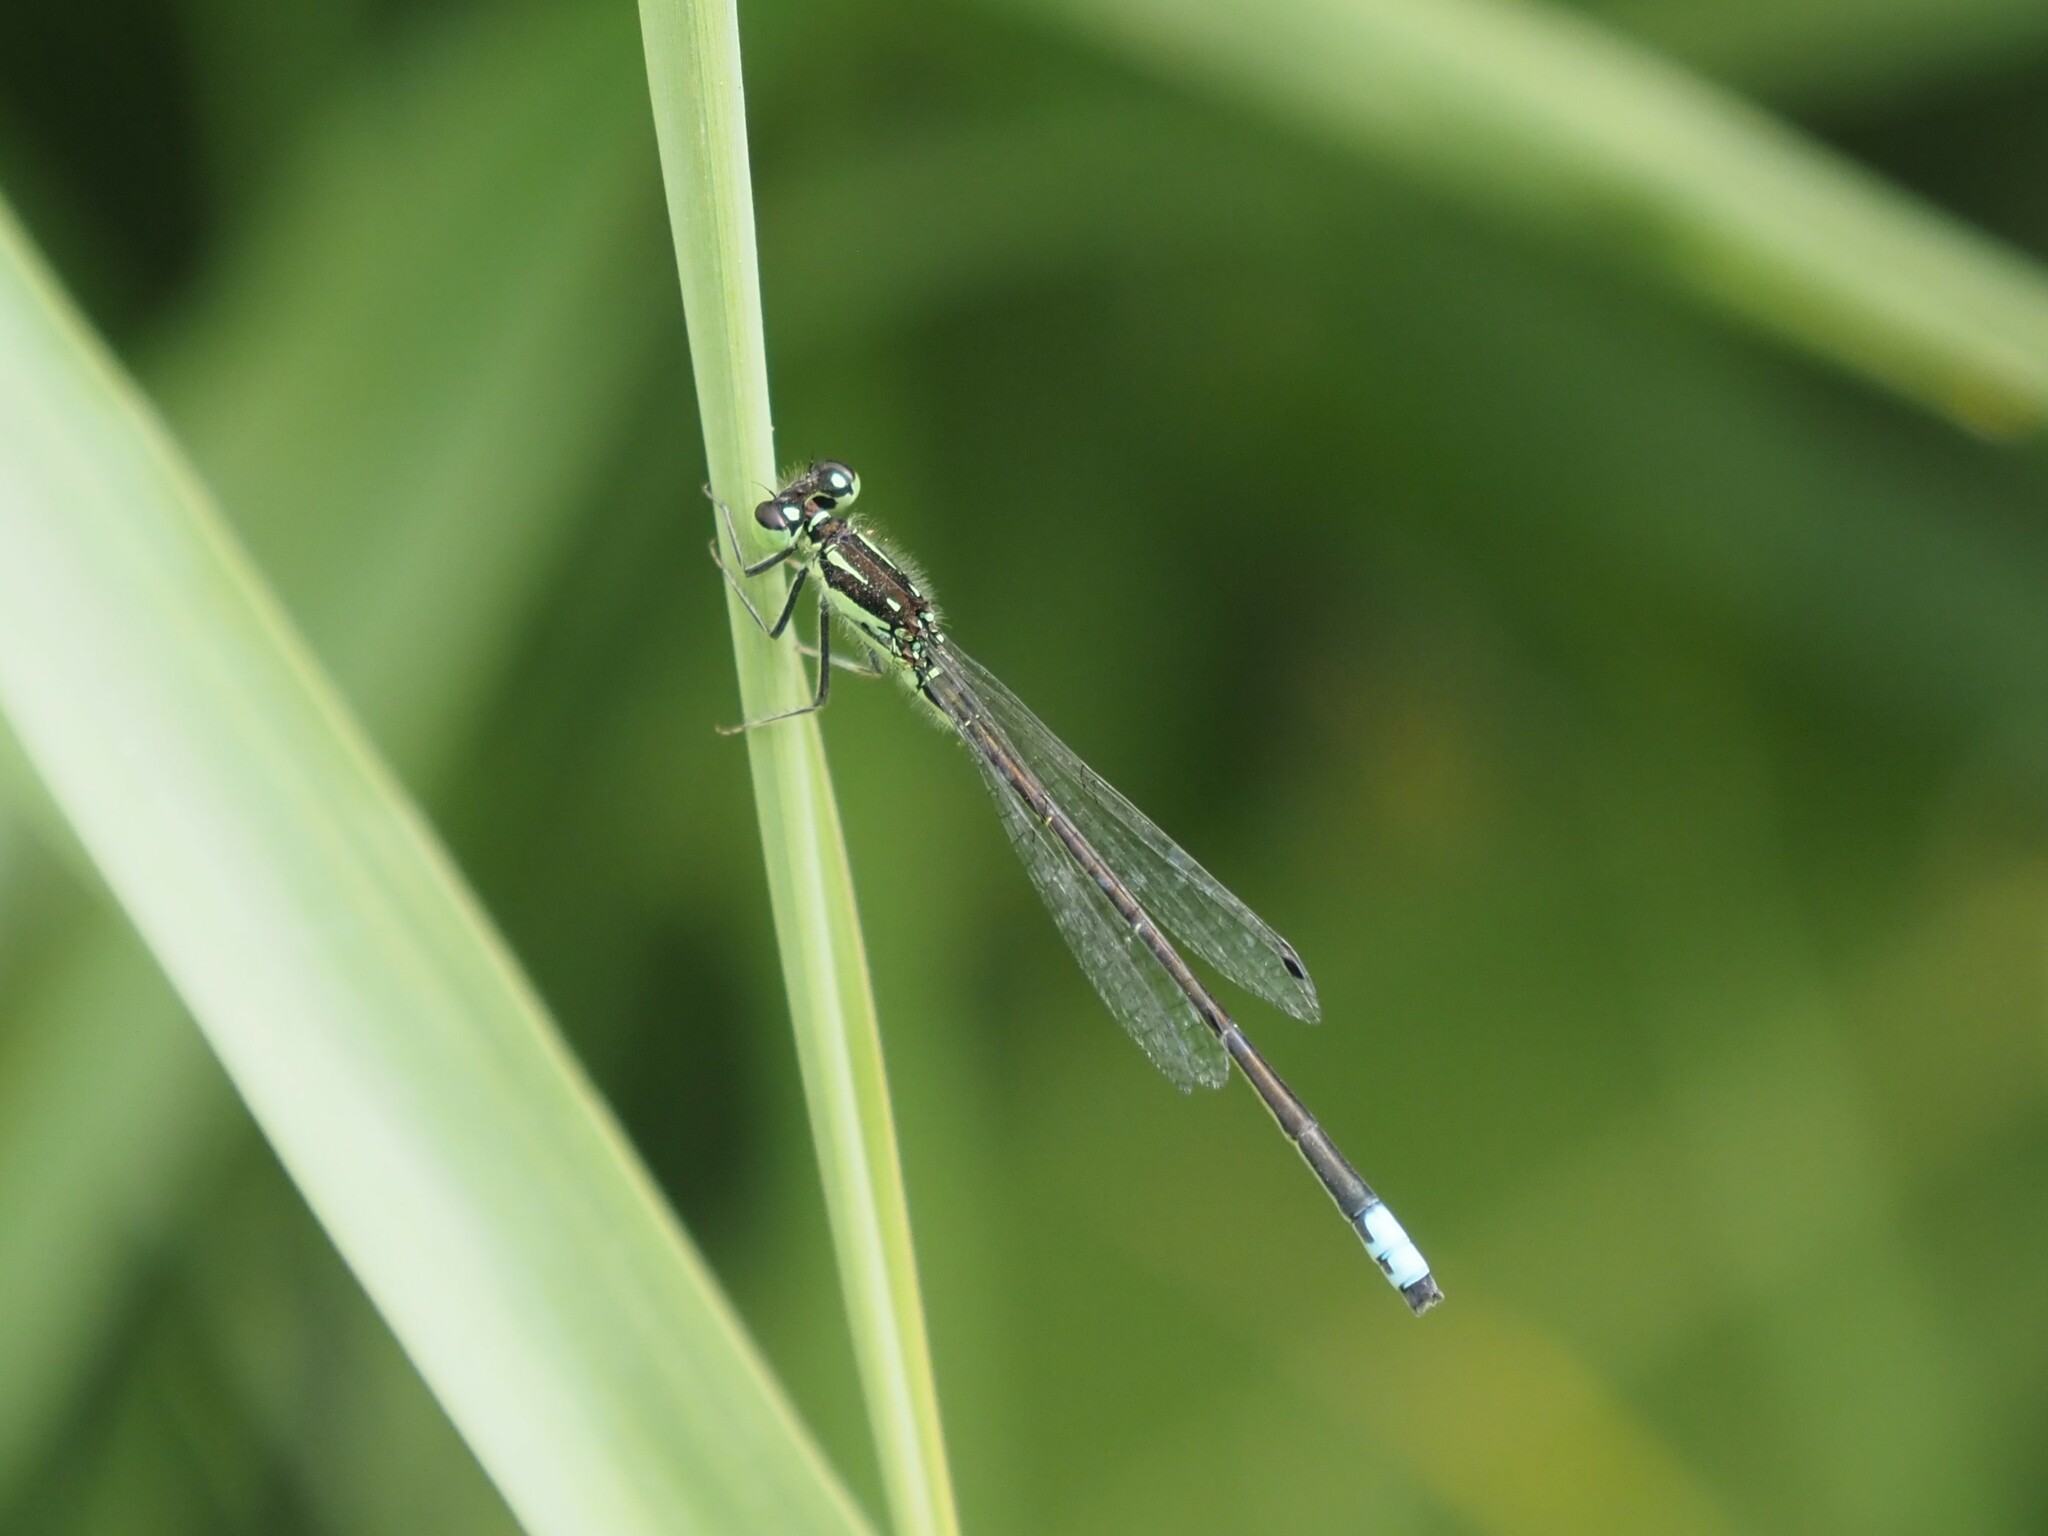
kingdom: Animalia
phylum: Arthropoda
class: Insecta
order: Odonata
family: Coenagrionidae
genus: Ischnura
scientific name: Ischnura verticalis
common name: Eastern forktail
